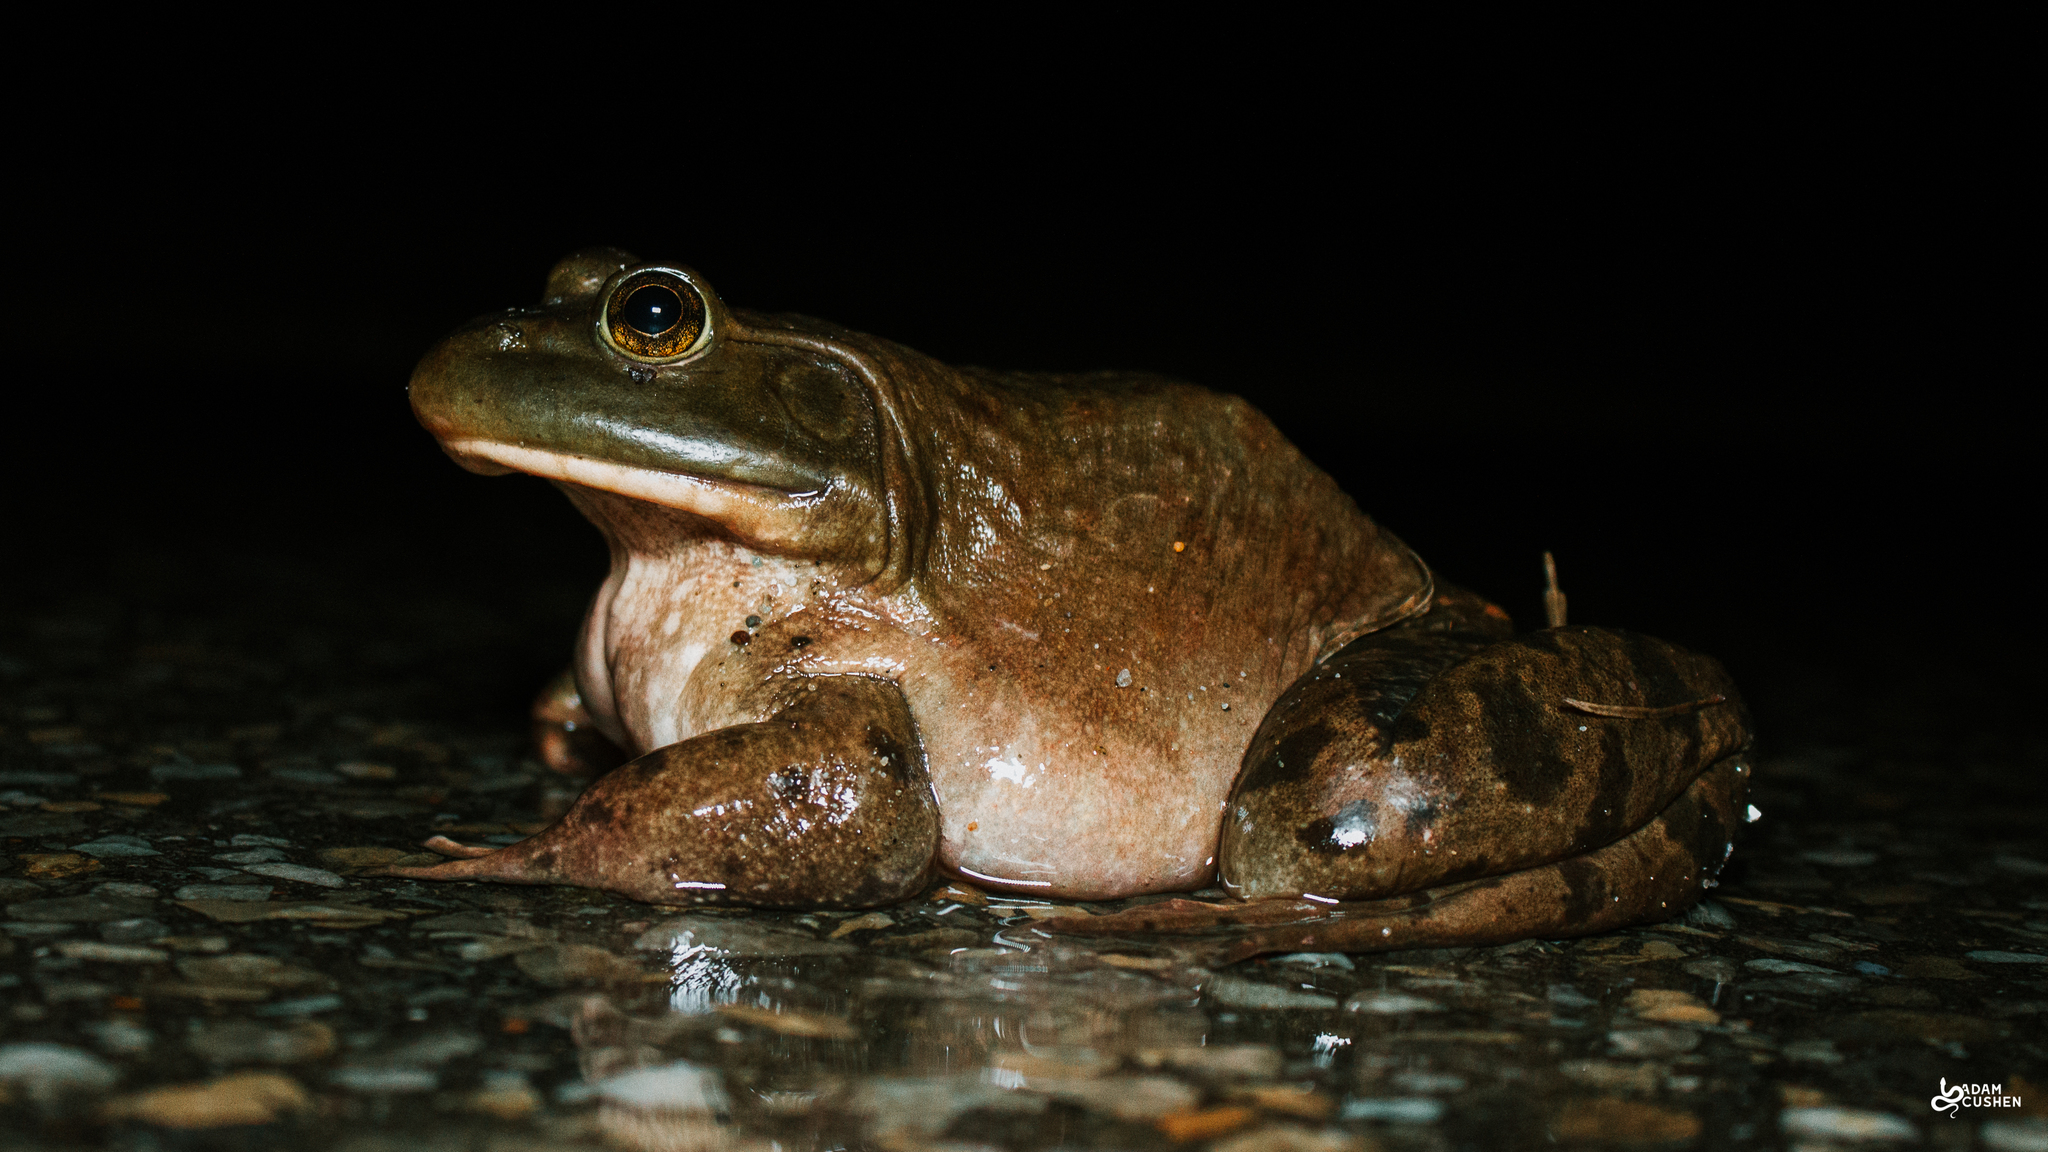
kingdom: Animalia
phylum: Chordata
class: Amphibia
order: Anura
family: Ranidae
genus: Lithobates
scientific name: Lithobates catesbeianus
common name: American bullfrog
